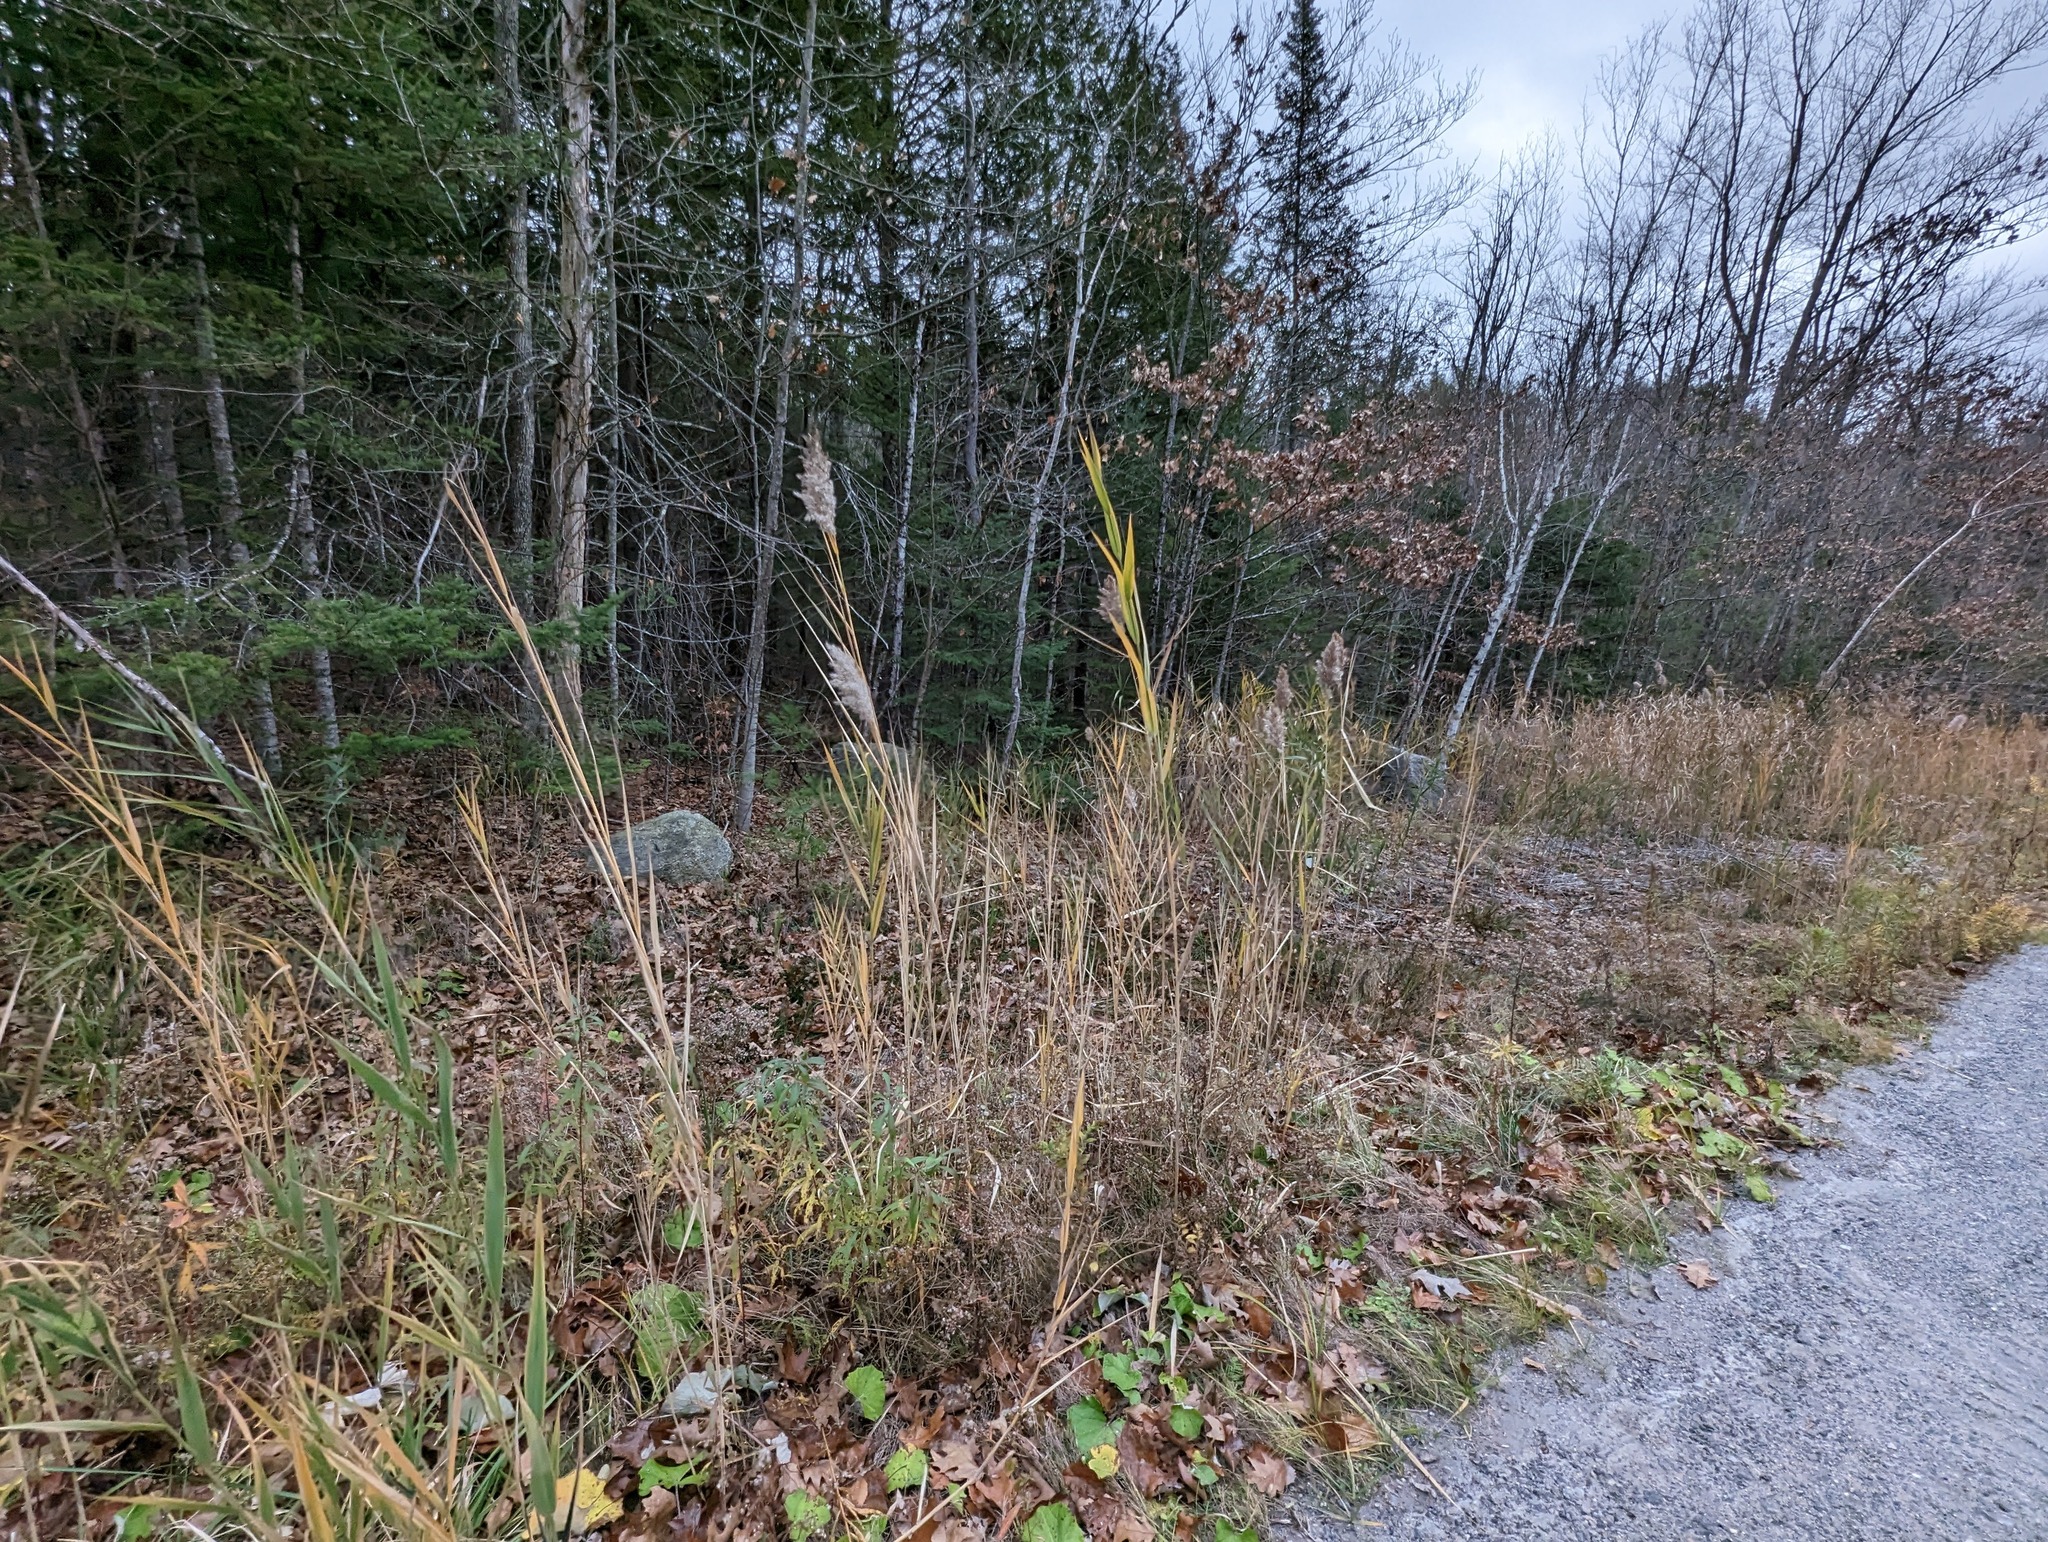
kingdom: Plantae
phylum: Tracheophyta
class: Liliopsida
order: Poales
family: Poaceae
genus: Phragmites
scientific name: Phragmites australis
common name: Common reed
